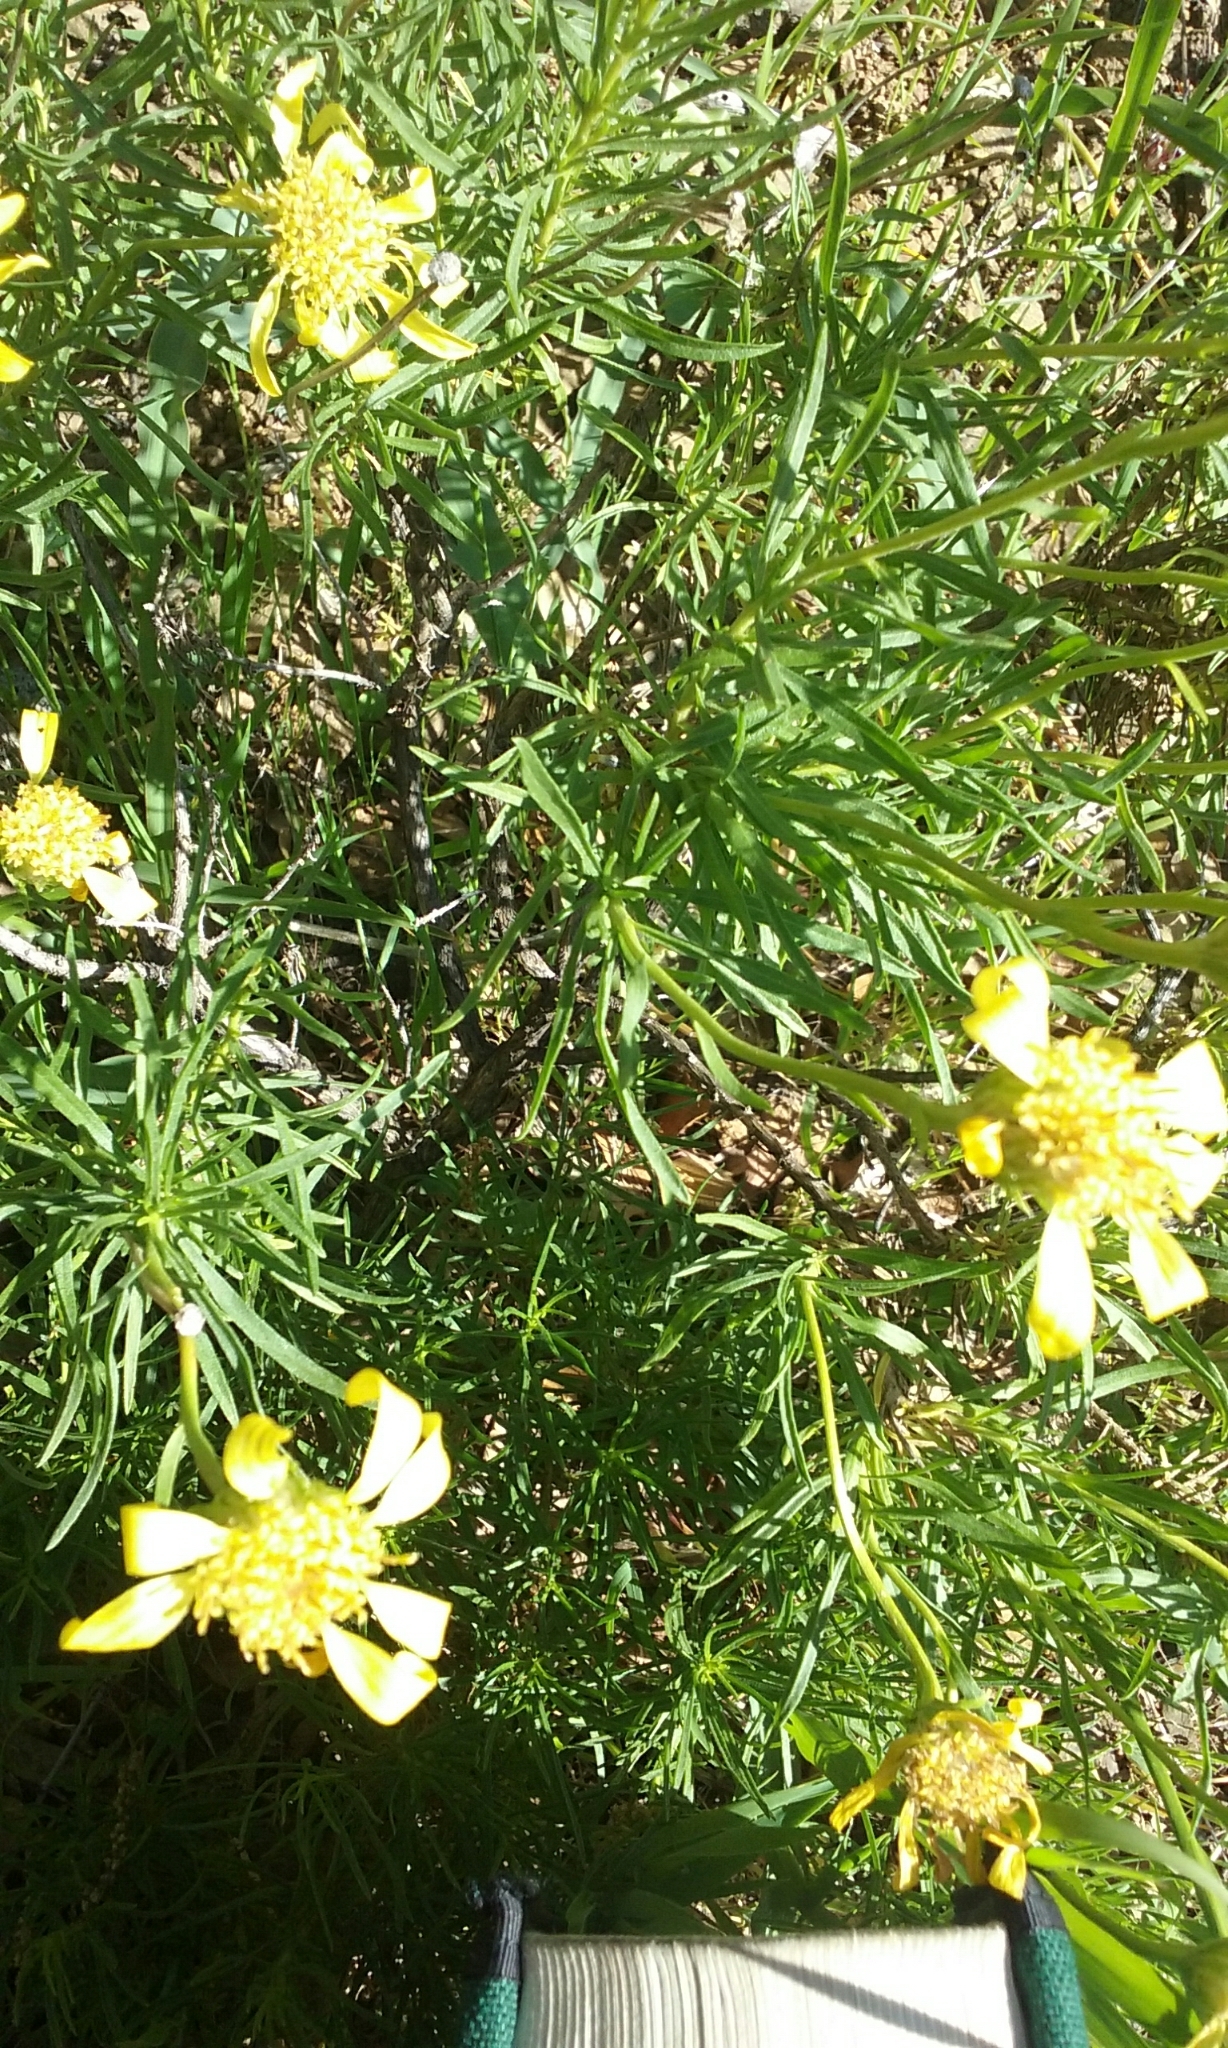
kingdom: Plantae
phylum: Tracheophyta
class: Magnoliopsida
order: Asterales
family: Asteraceae
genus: Ericameria
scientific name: Ericameria linearifolia
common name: Interior goldenbush
